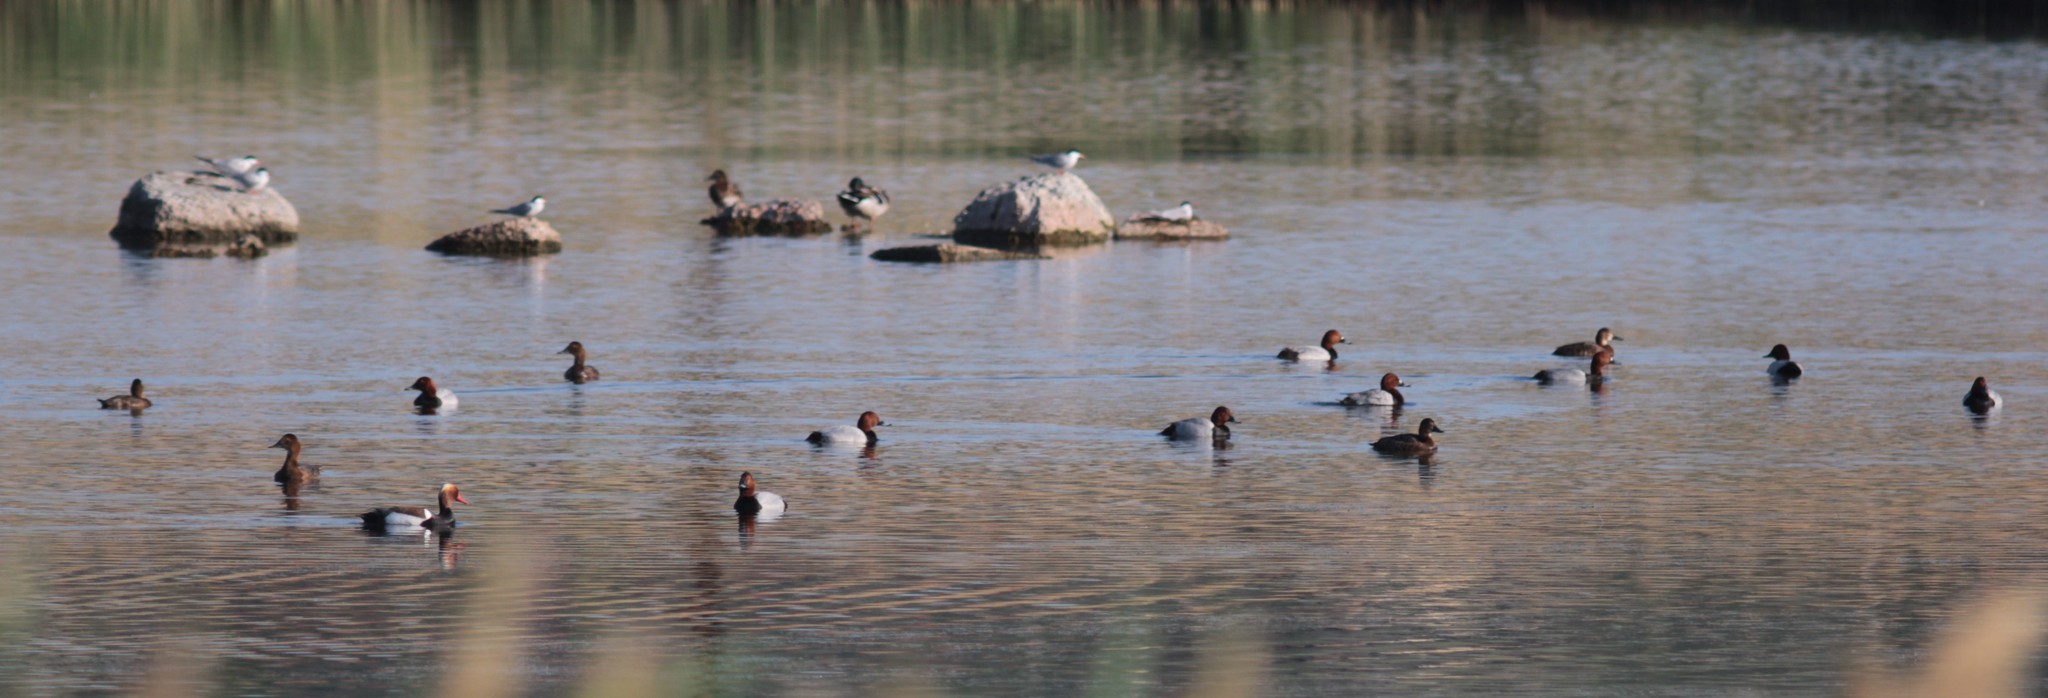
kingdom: Animalia
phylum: Chordata
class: Aves
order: Anseriformes
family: Anatidae
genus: Aythya
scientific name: Aythya ferina
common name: Common pochard
